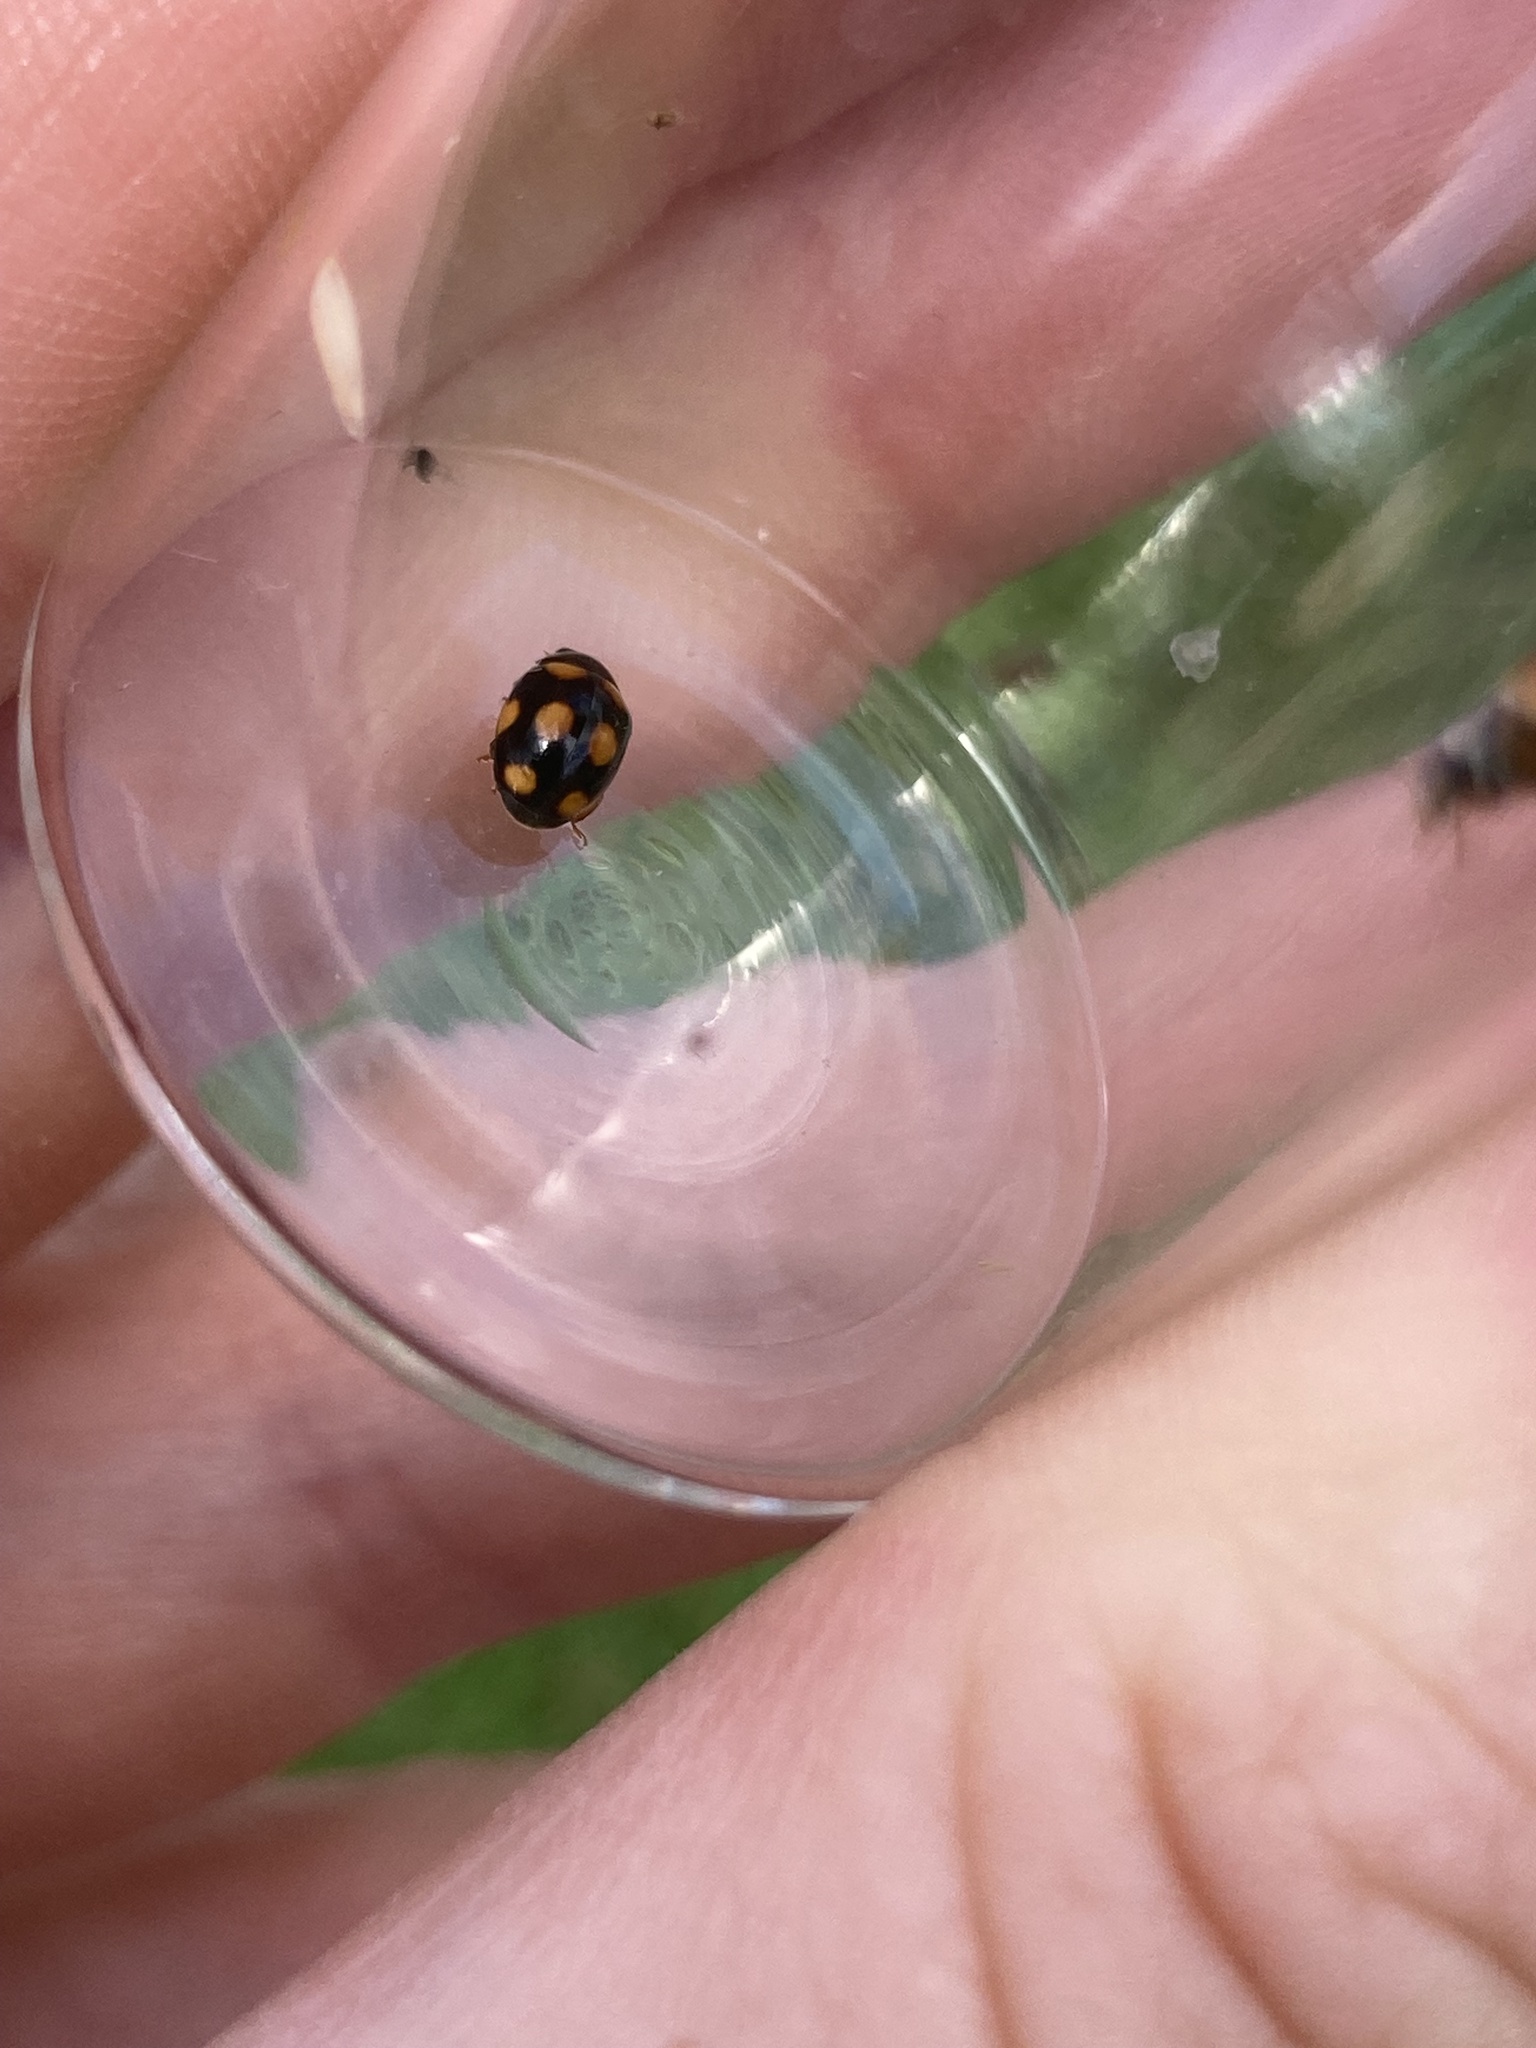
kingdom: Animalia
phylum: Arthropoda
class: Insecta
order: Coleoptera
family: Coccinellidae
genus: Brachiacantha
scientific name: Brachiacantha ursina
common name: Ursine spurleg lady beetle
